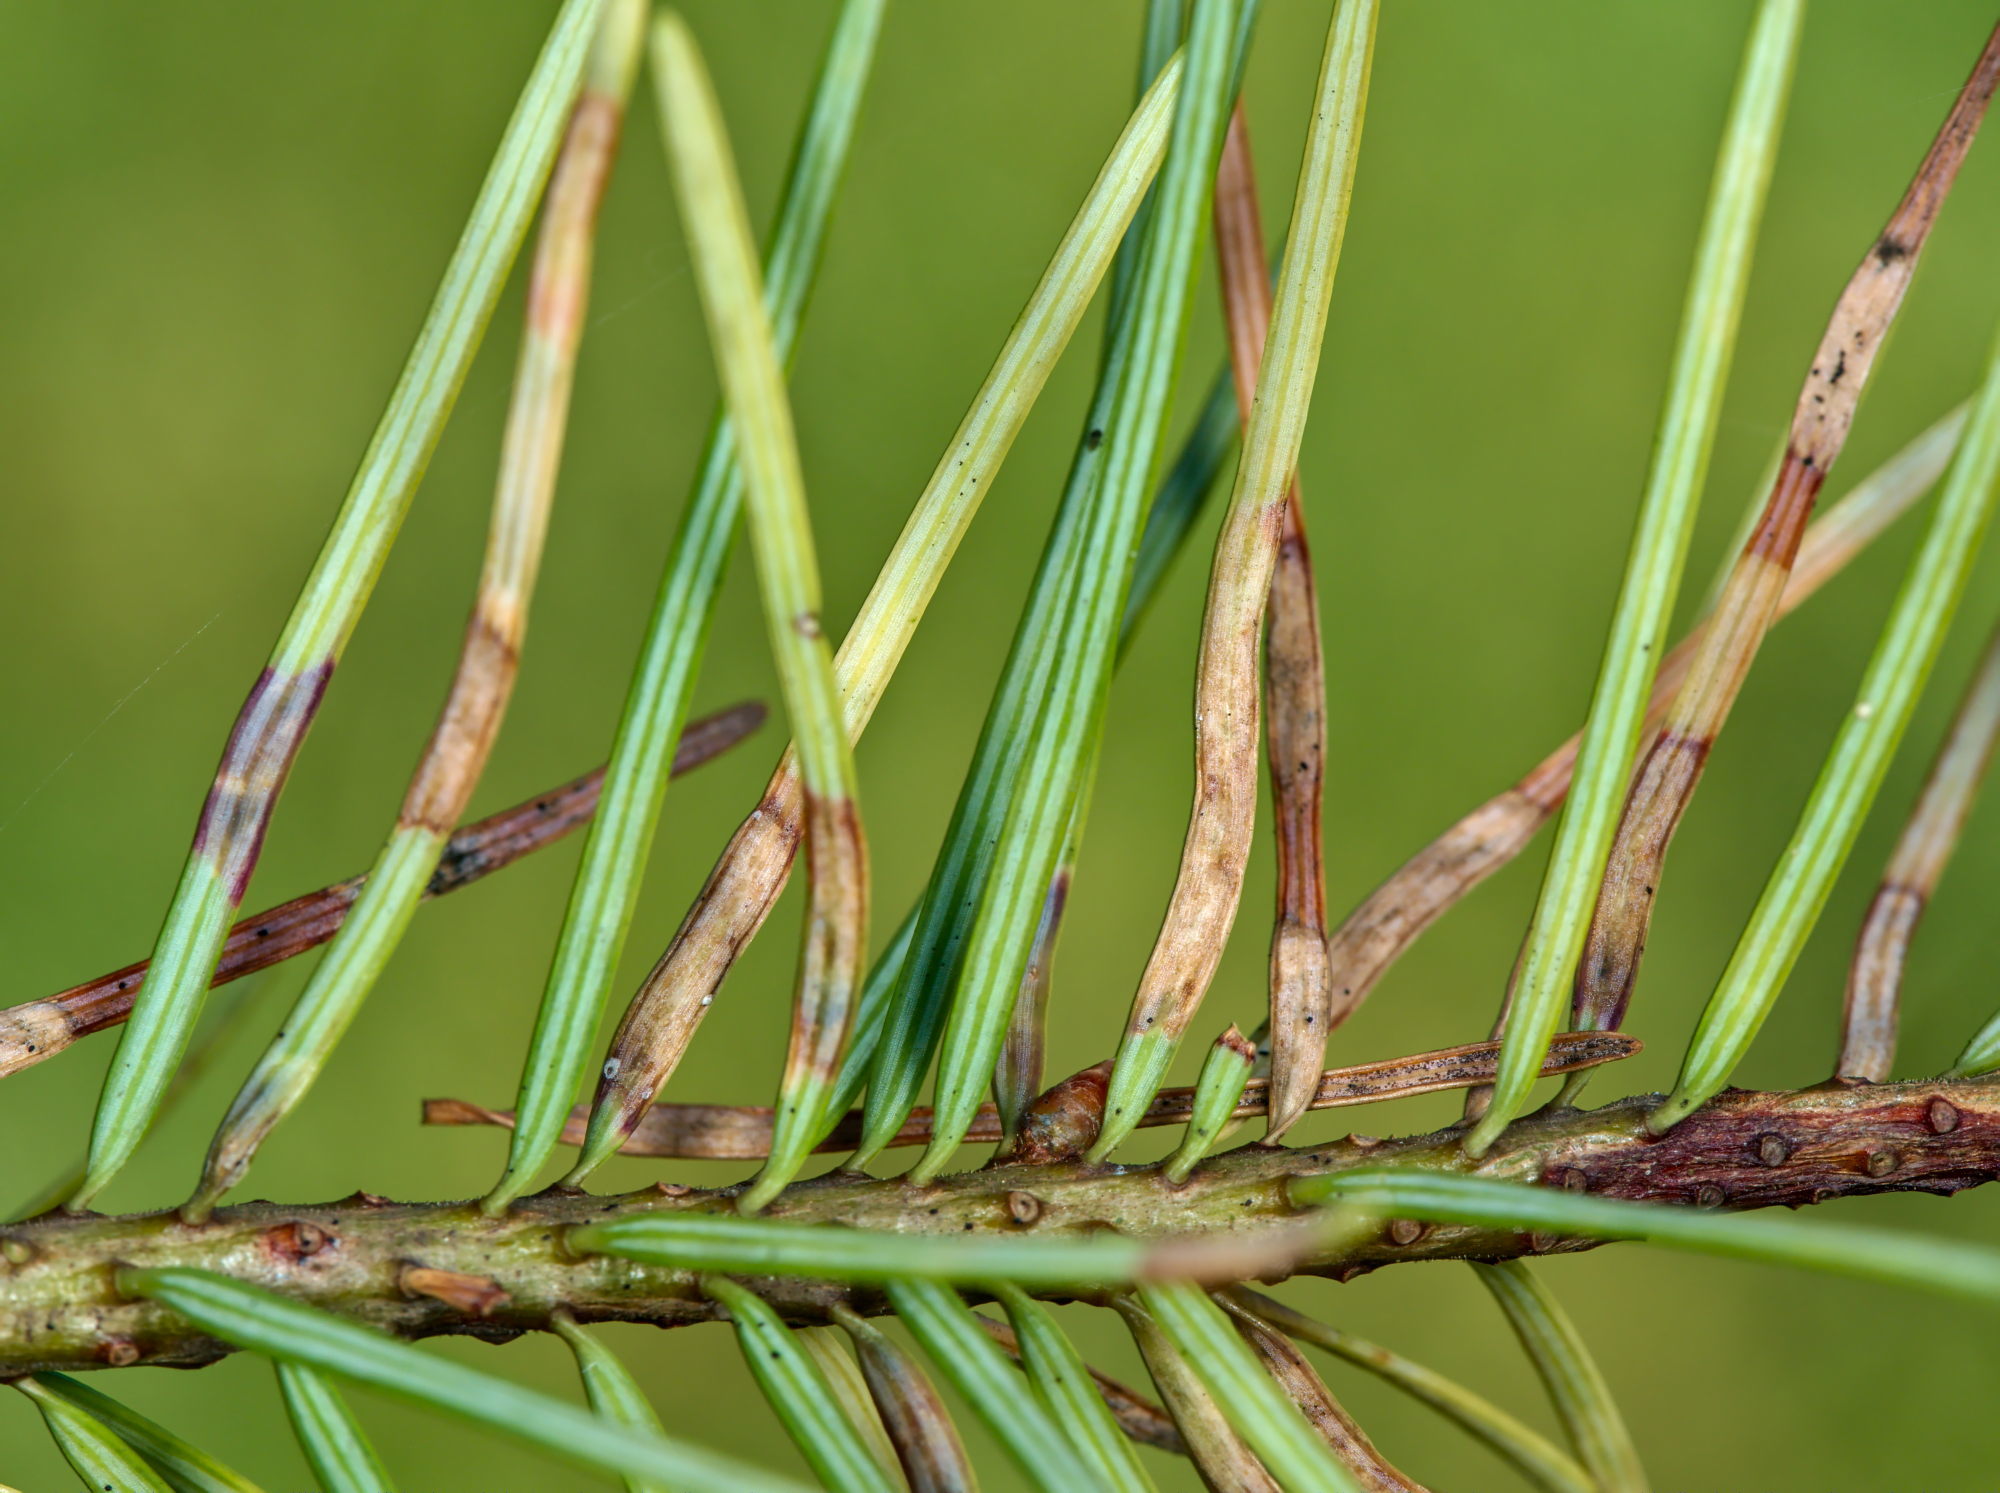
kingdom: Animalia
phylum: Arthropoda
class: Insecta
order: Diptera
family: Cecidomyiidae
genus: Contarinia
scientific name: Contarinia pseudotsugae
